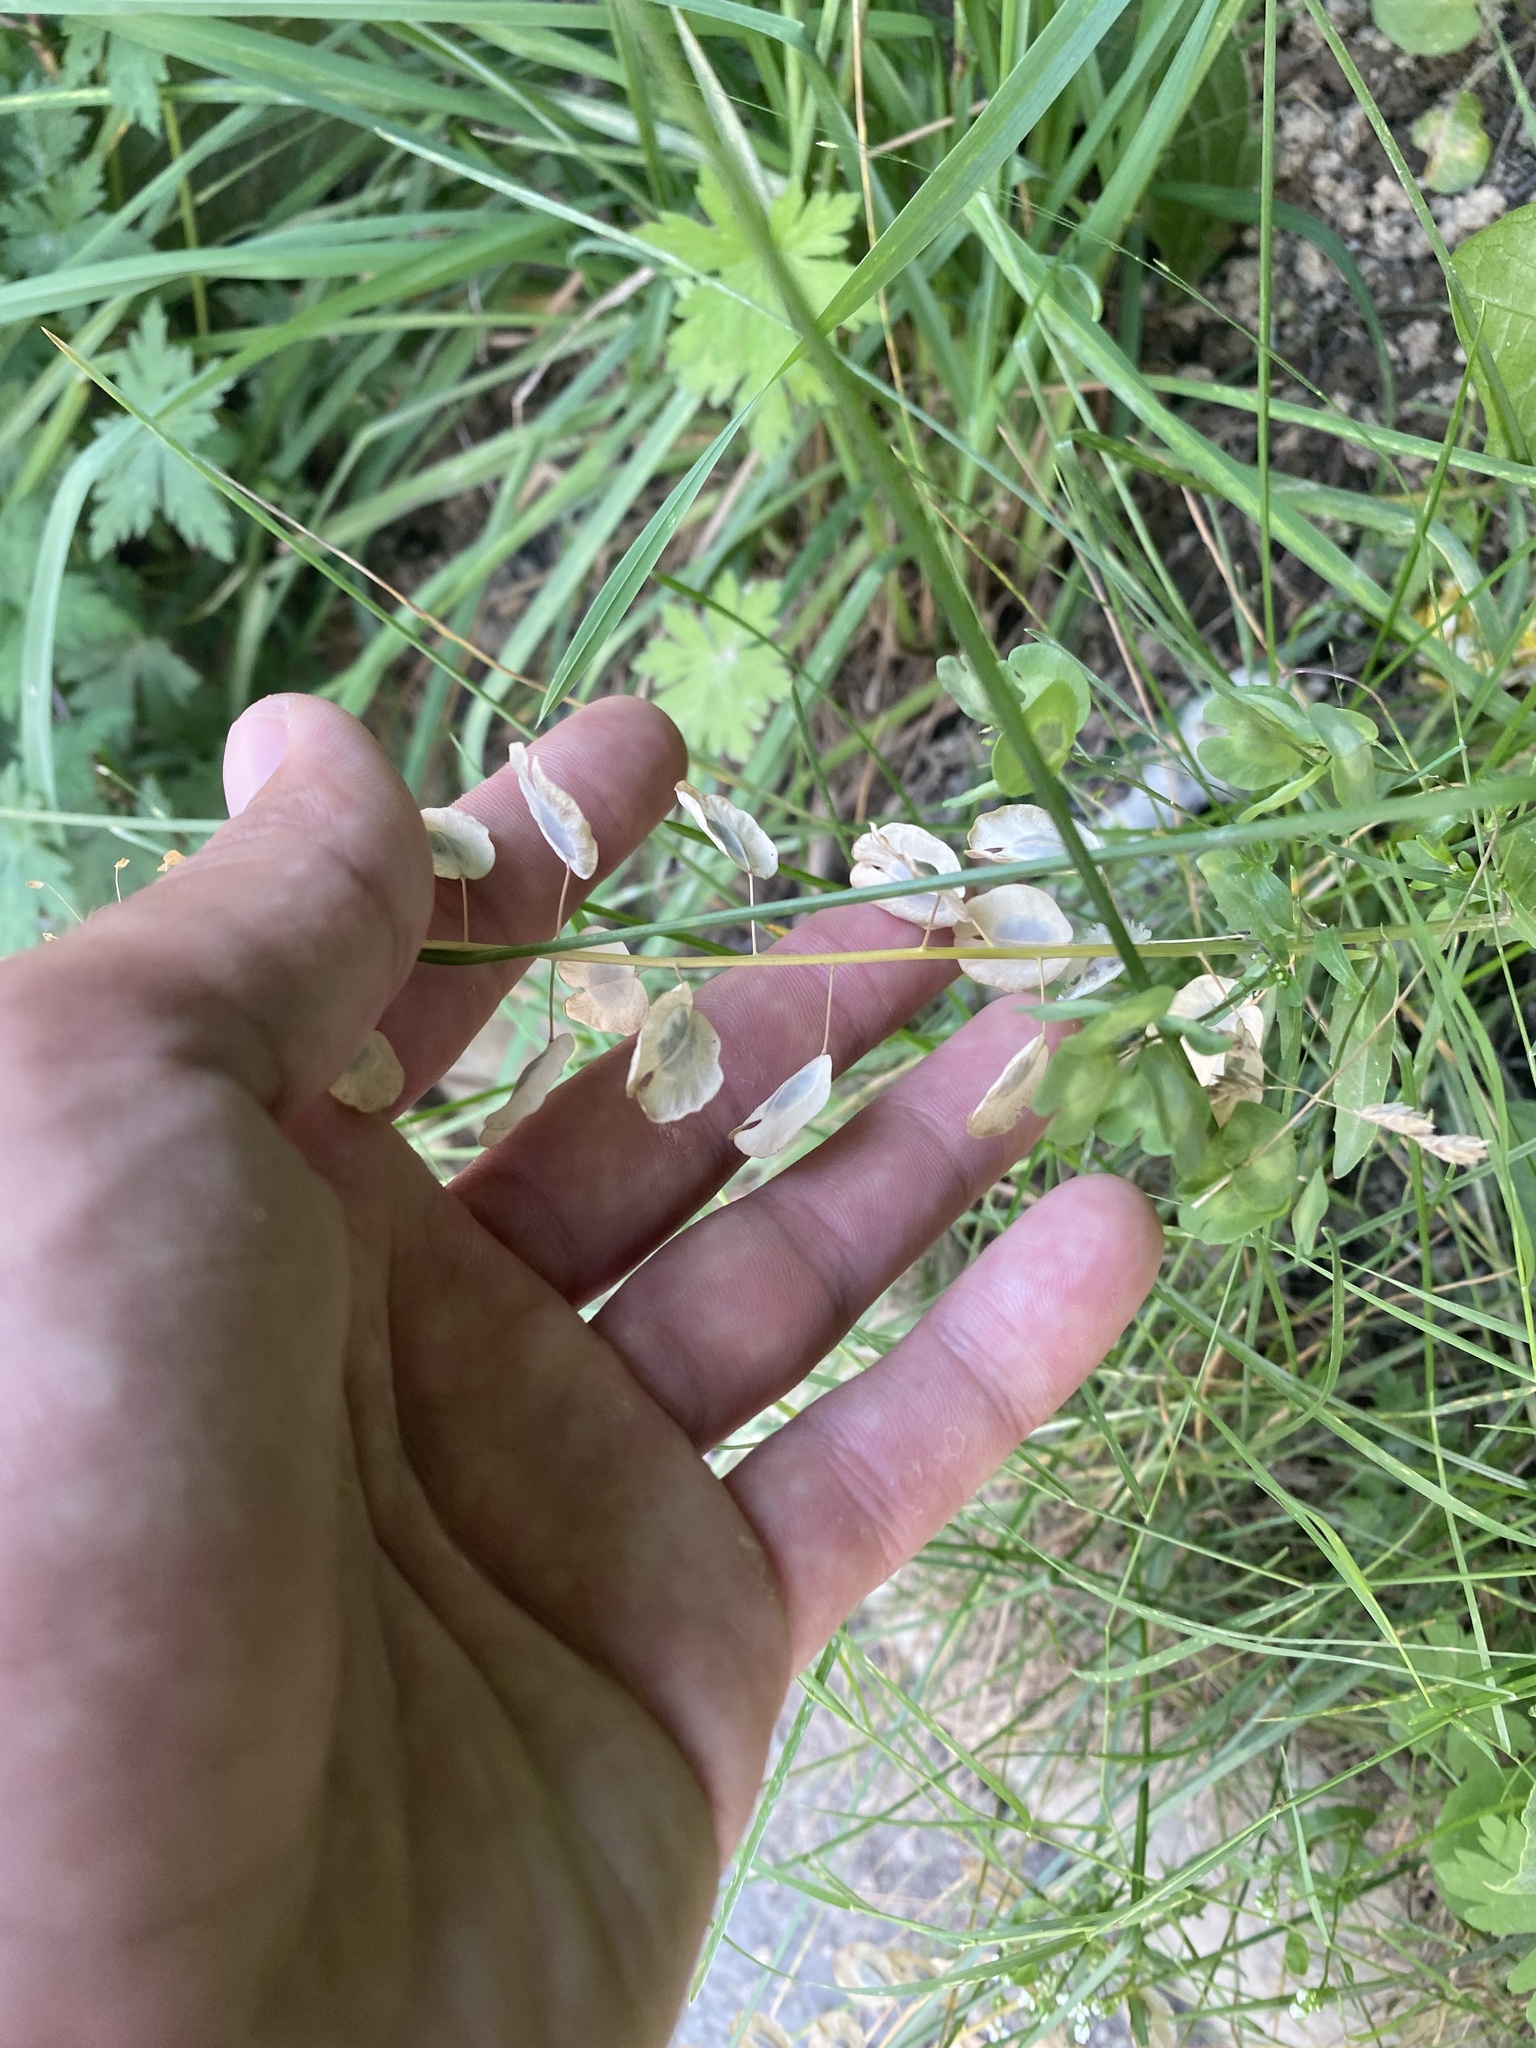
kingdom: Plantae
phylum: Tracheophyta
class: Magnoliopsida
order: Brassicales
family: Brassicaceae
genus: Thlaspi
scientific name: Thlaspi arvense
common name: Field pennycress
